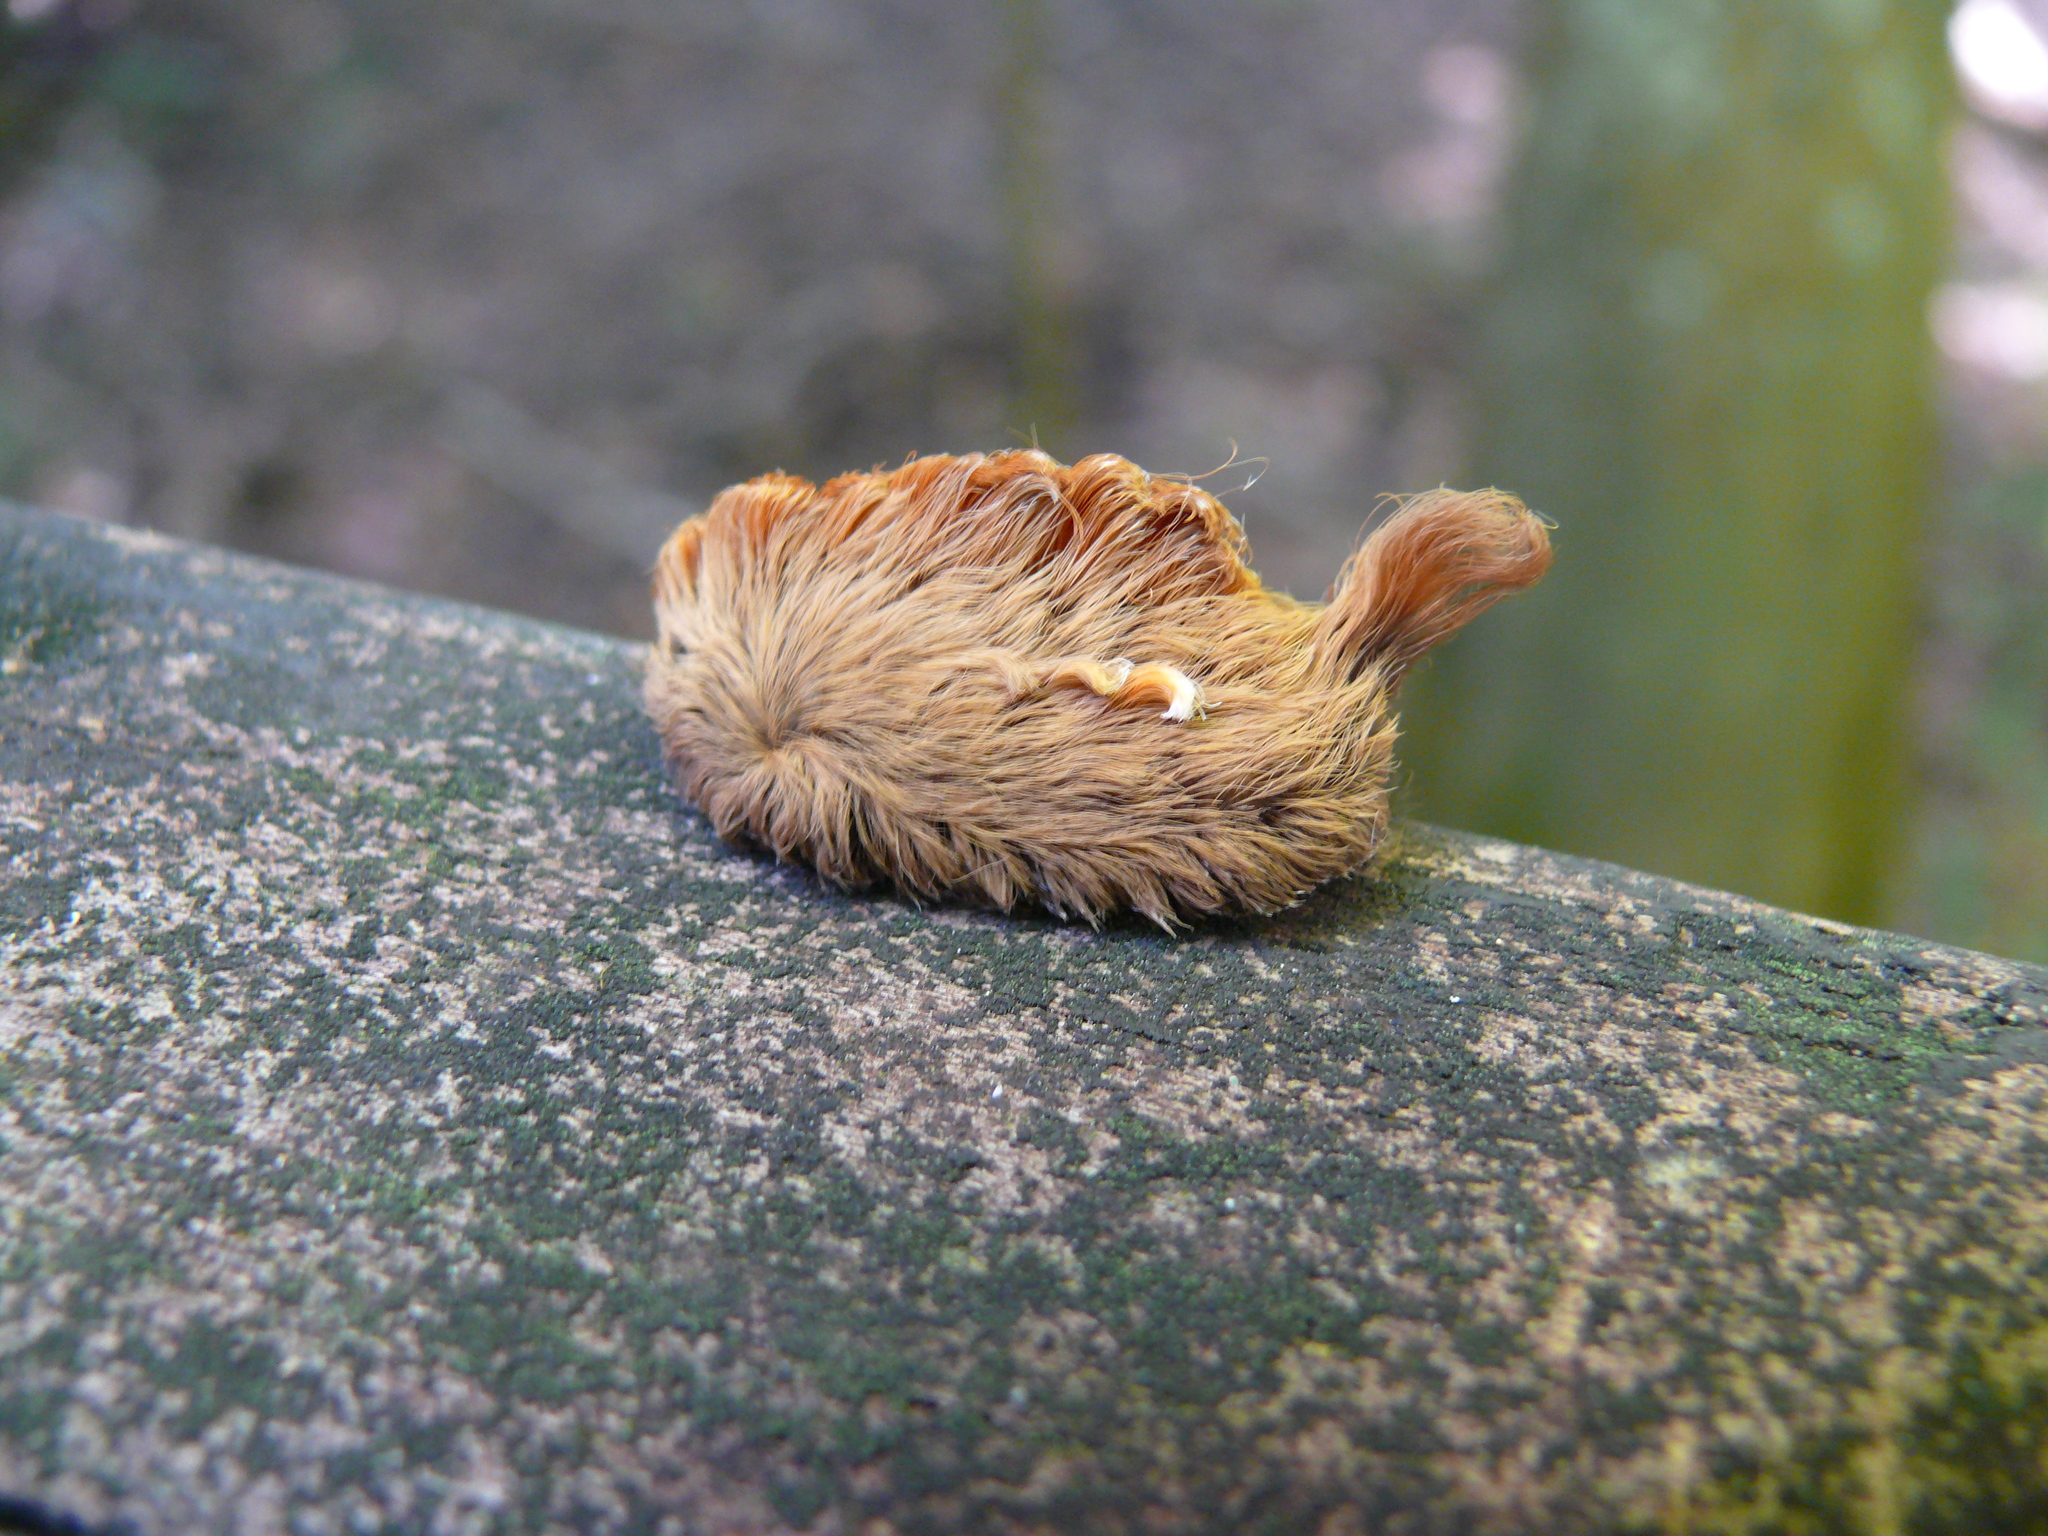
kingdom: Animalia
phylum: Arthropoda
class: Insecta
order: Lepidoptera
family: Megalopygidae
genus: Megalopyge
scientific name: Megalopyge opercularis
